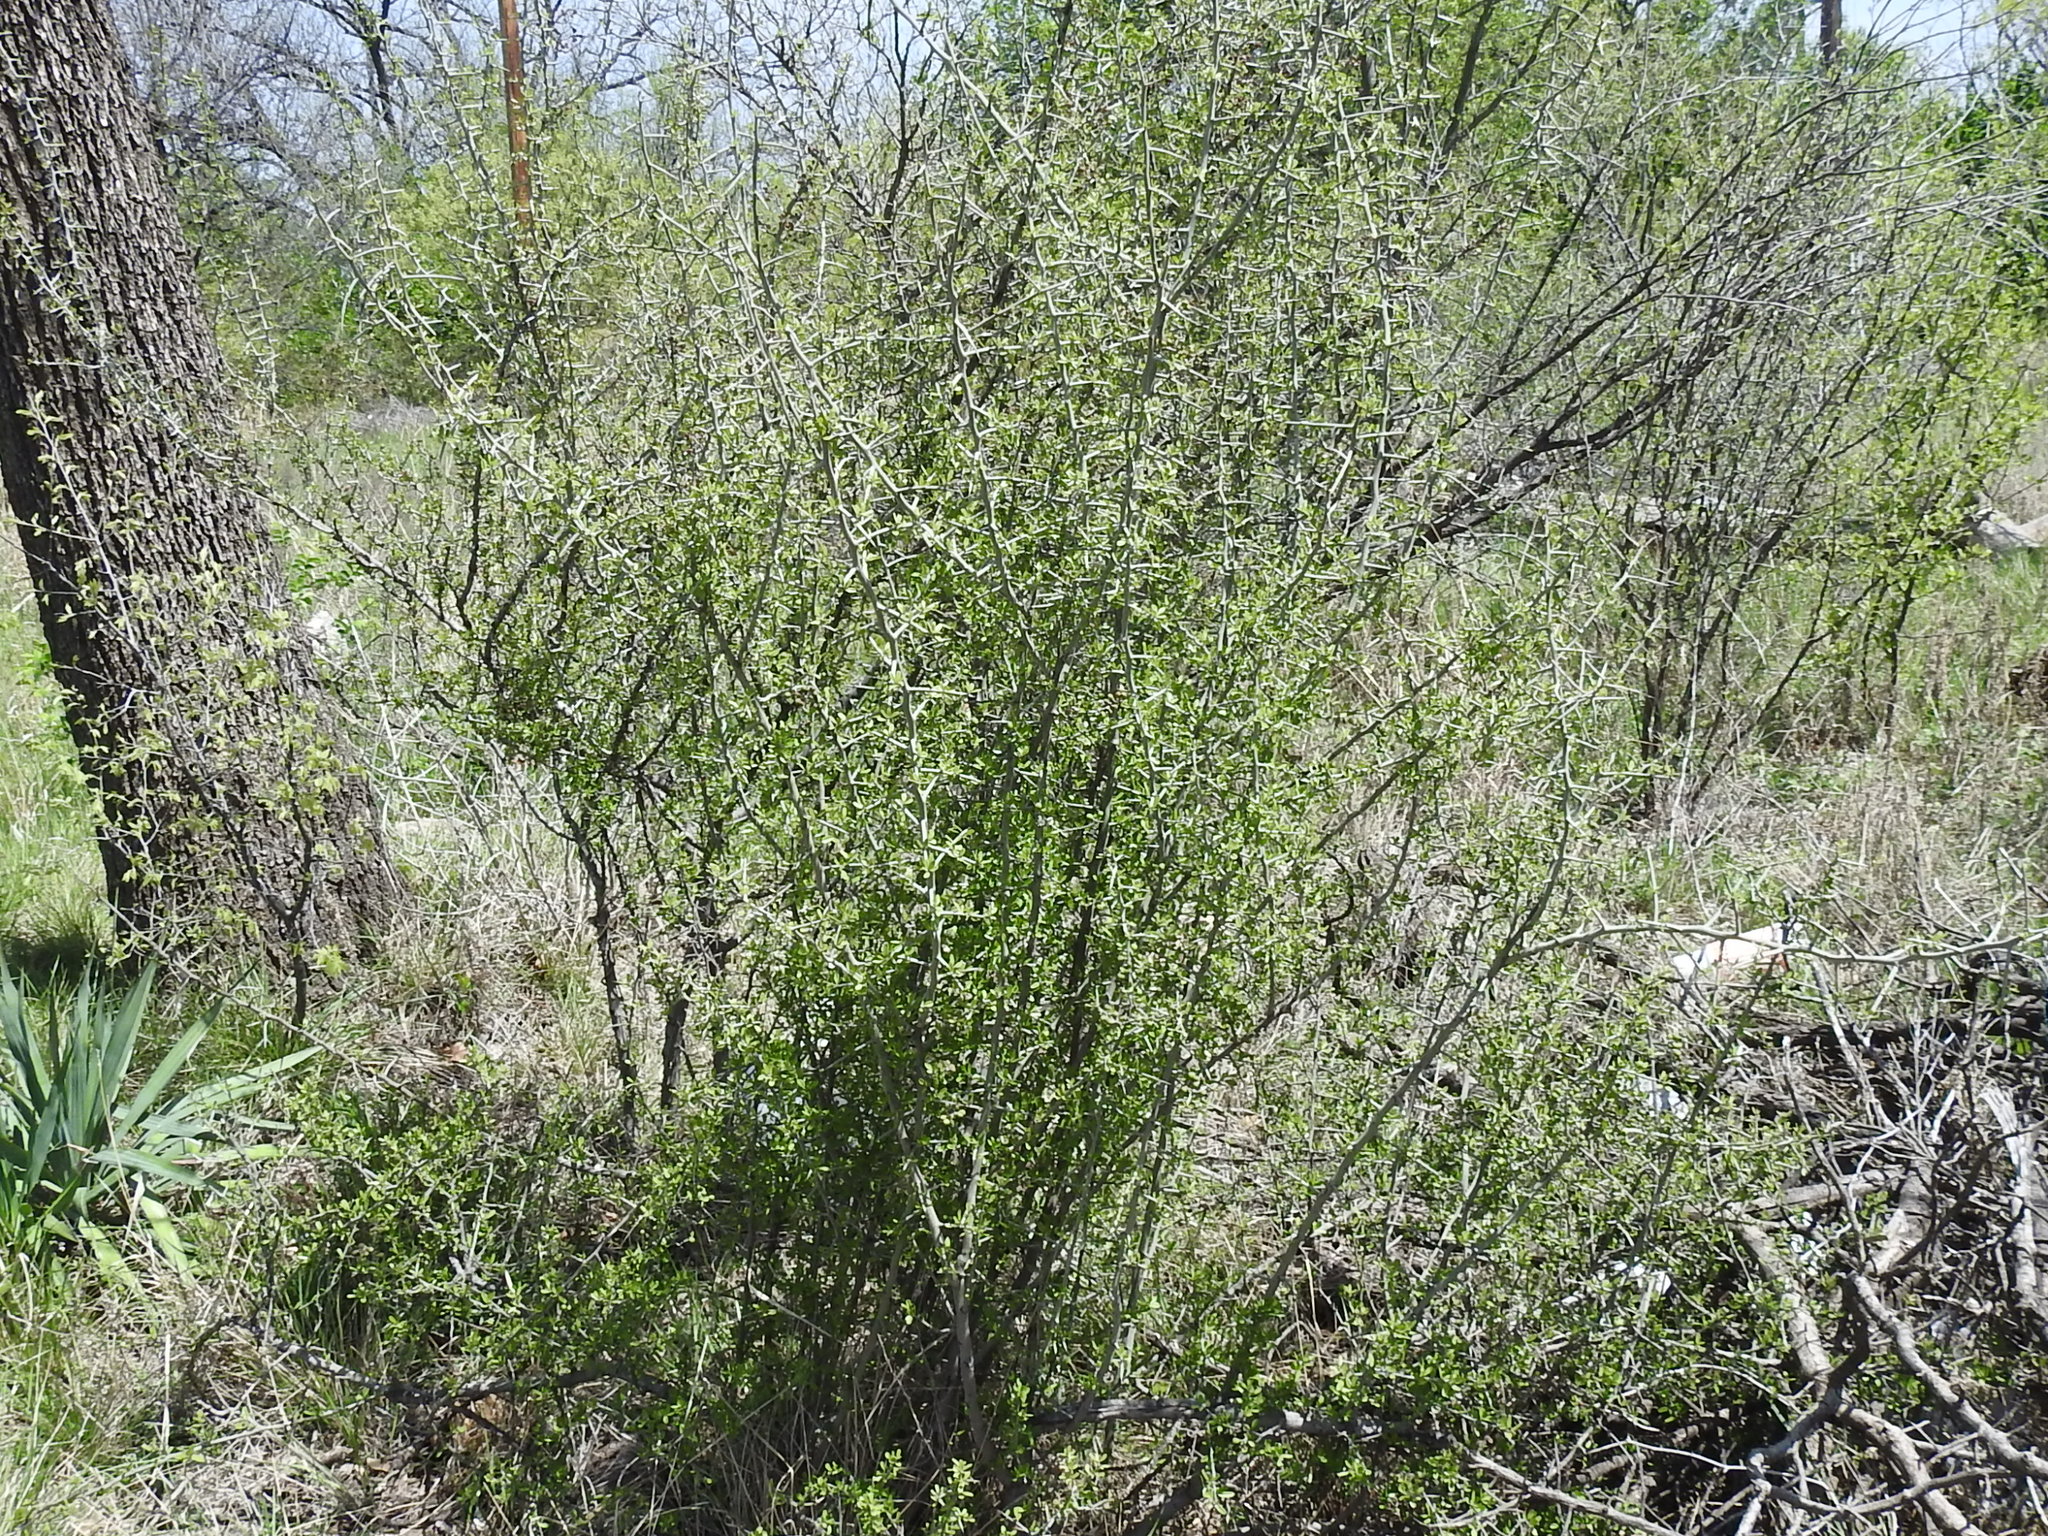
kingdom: Plantae
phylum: Tracheophyta
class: Magnoliopsida
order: Rosales
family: Rhamnaceae
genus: Sarcomphalus
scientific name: Sarcomphalus obtusifolius
